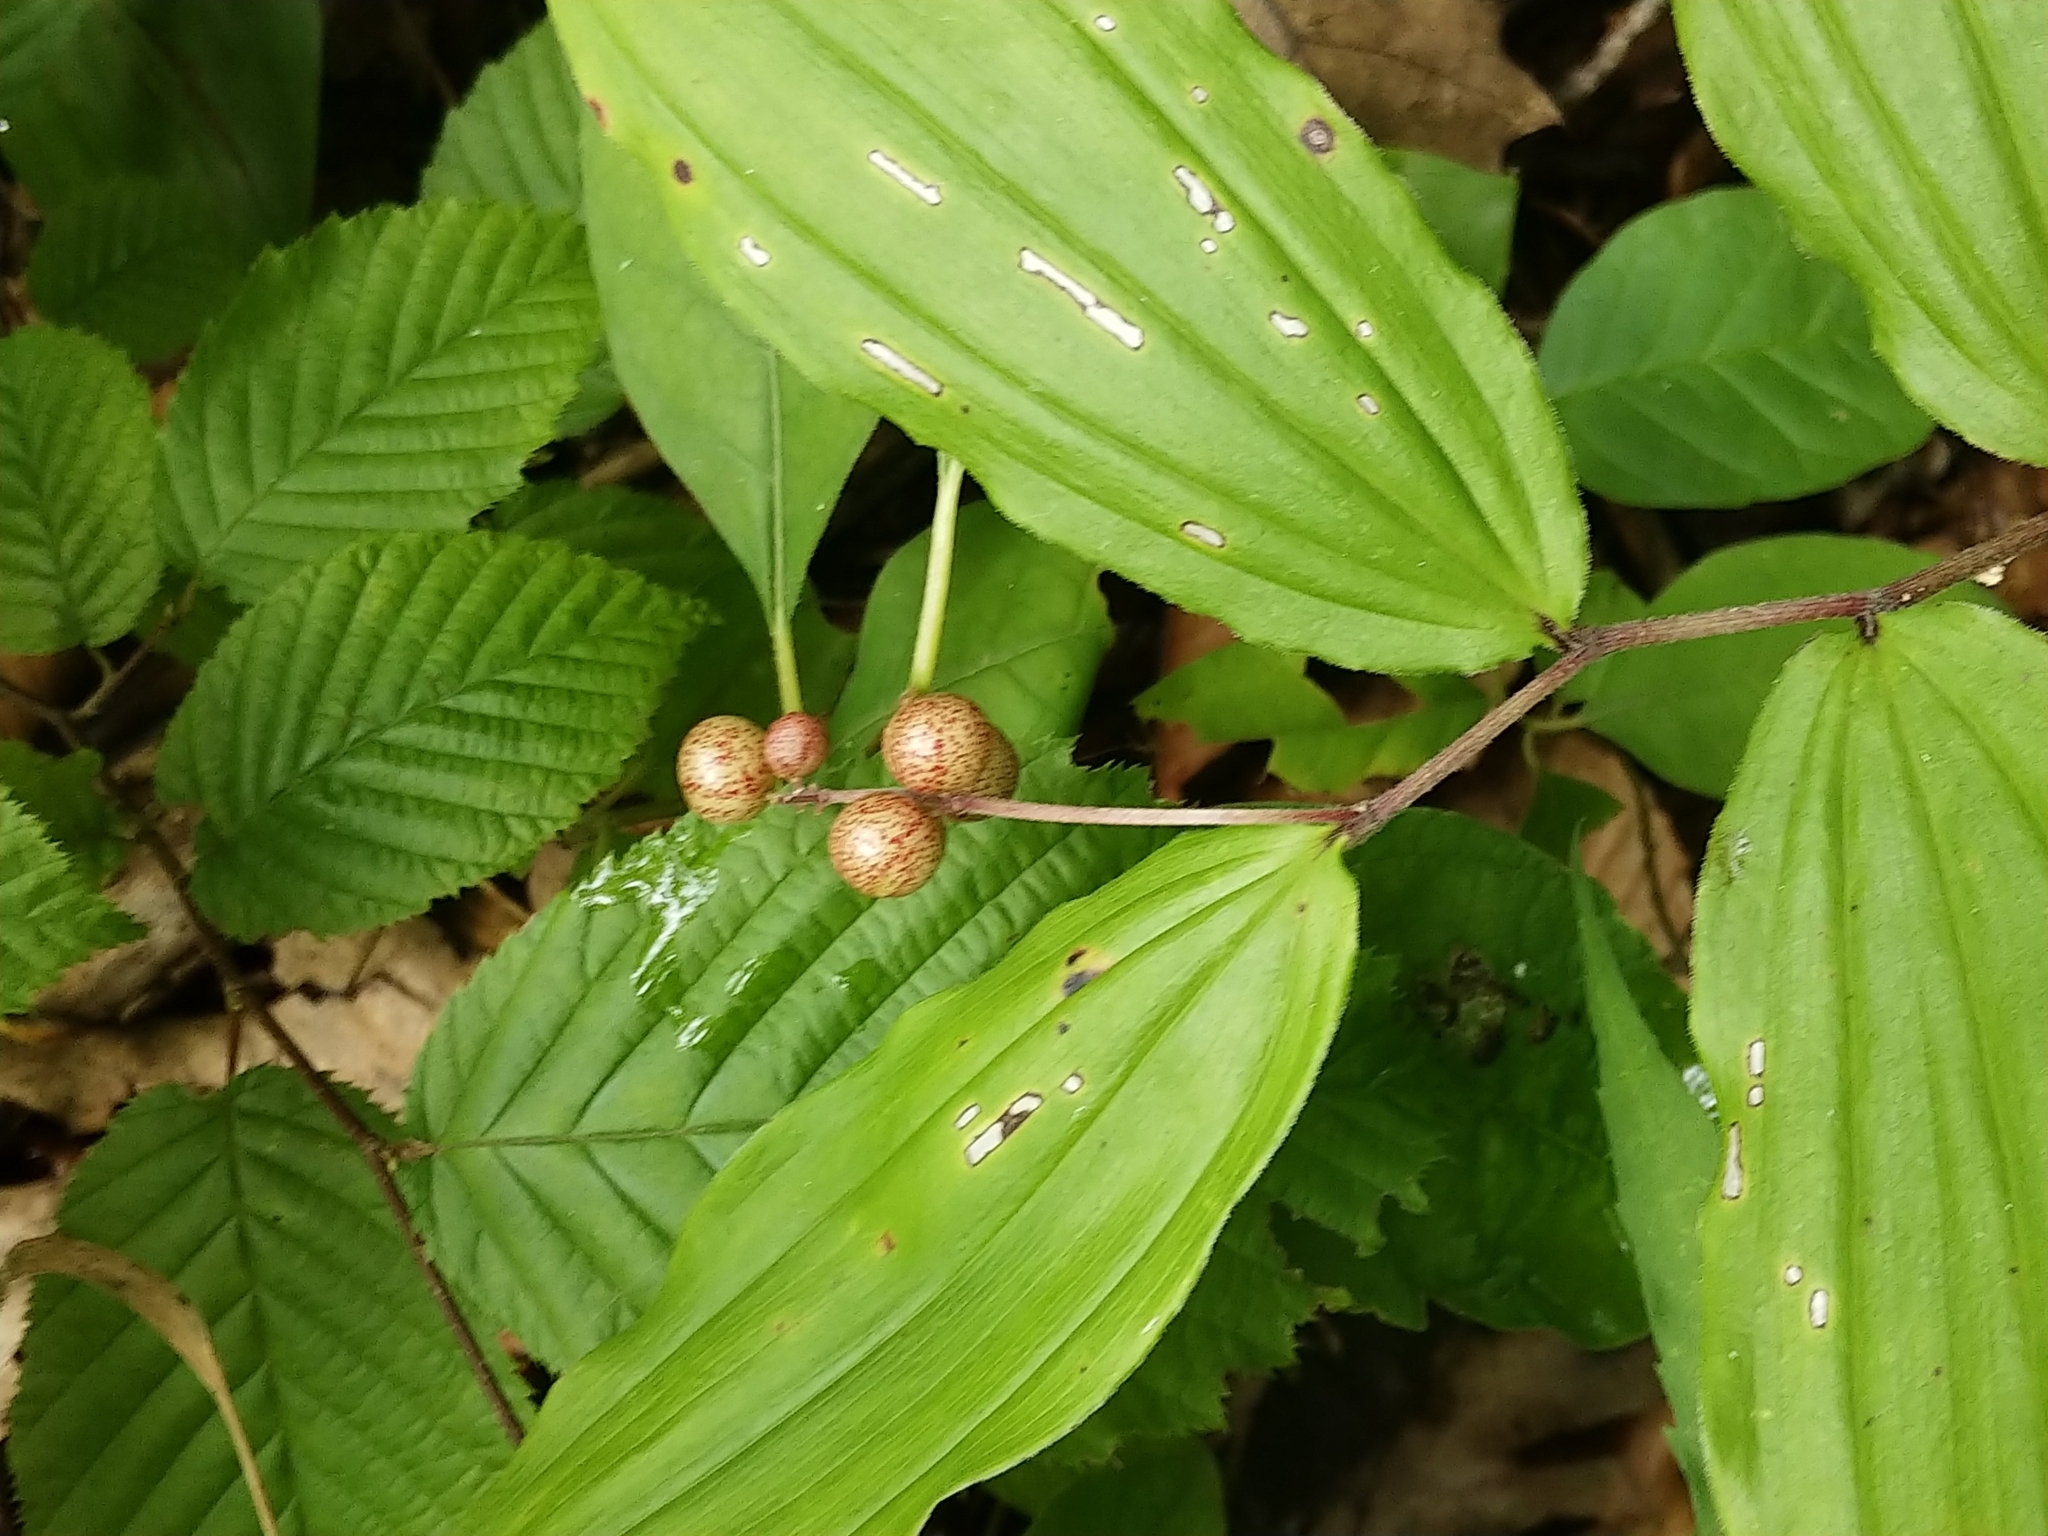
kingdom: Plantae
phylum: Tracheophyta
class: Liliopsida
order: Asparagales
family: Asparagaceae
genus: Maianthemum
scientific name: Maianthemum racemosum
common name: False spikenard
